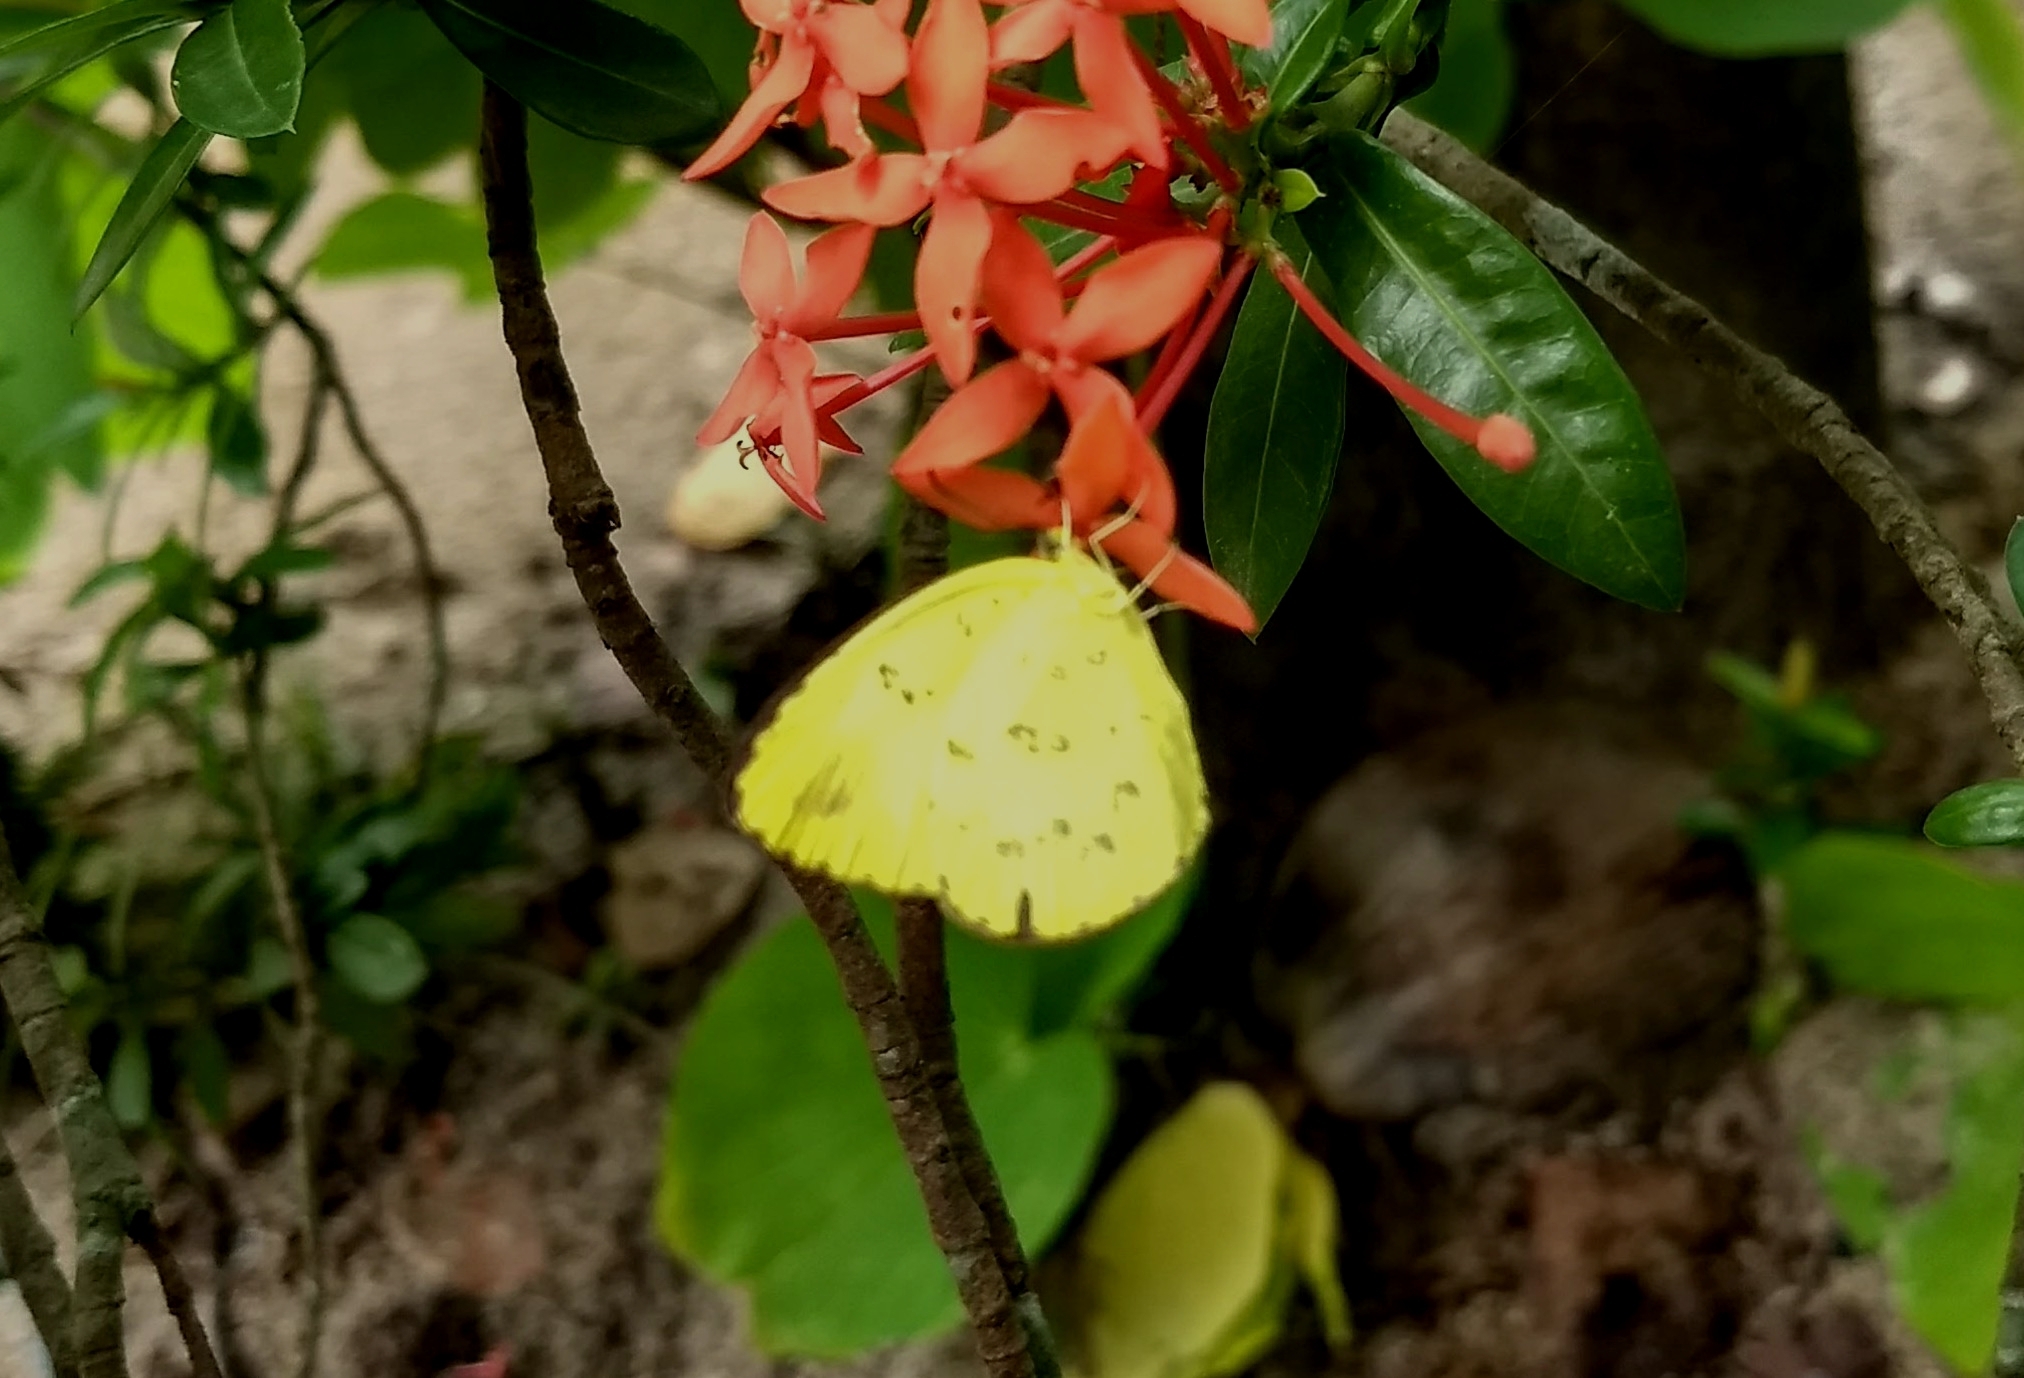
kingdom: Animalia
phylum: Arthropoda
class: Insecta
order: Lepidoptera
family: Pieridae
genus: Eurema
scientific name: Eurema hecabe
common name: Pale grass yellow
